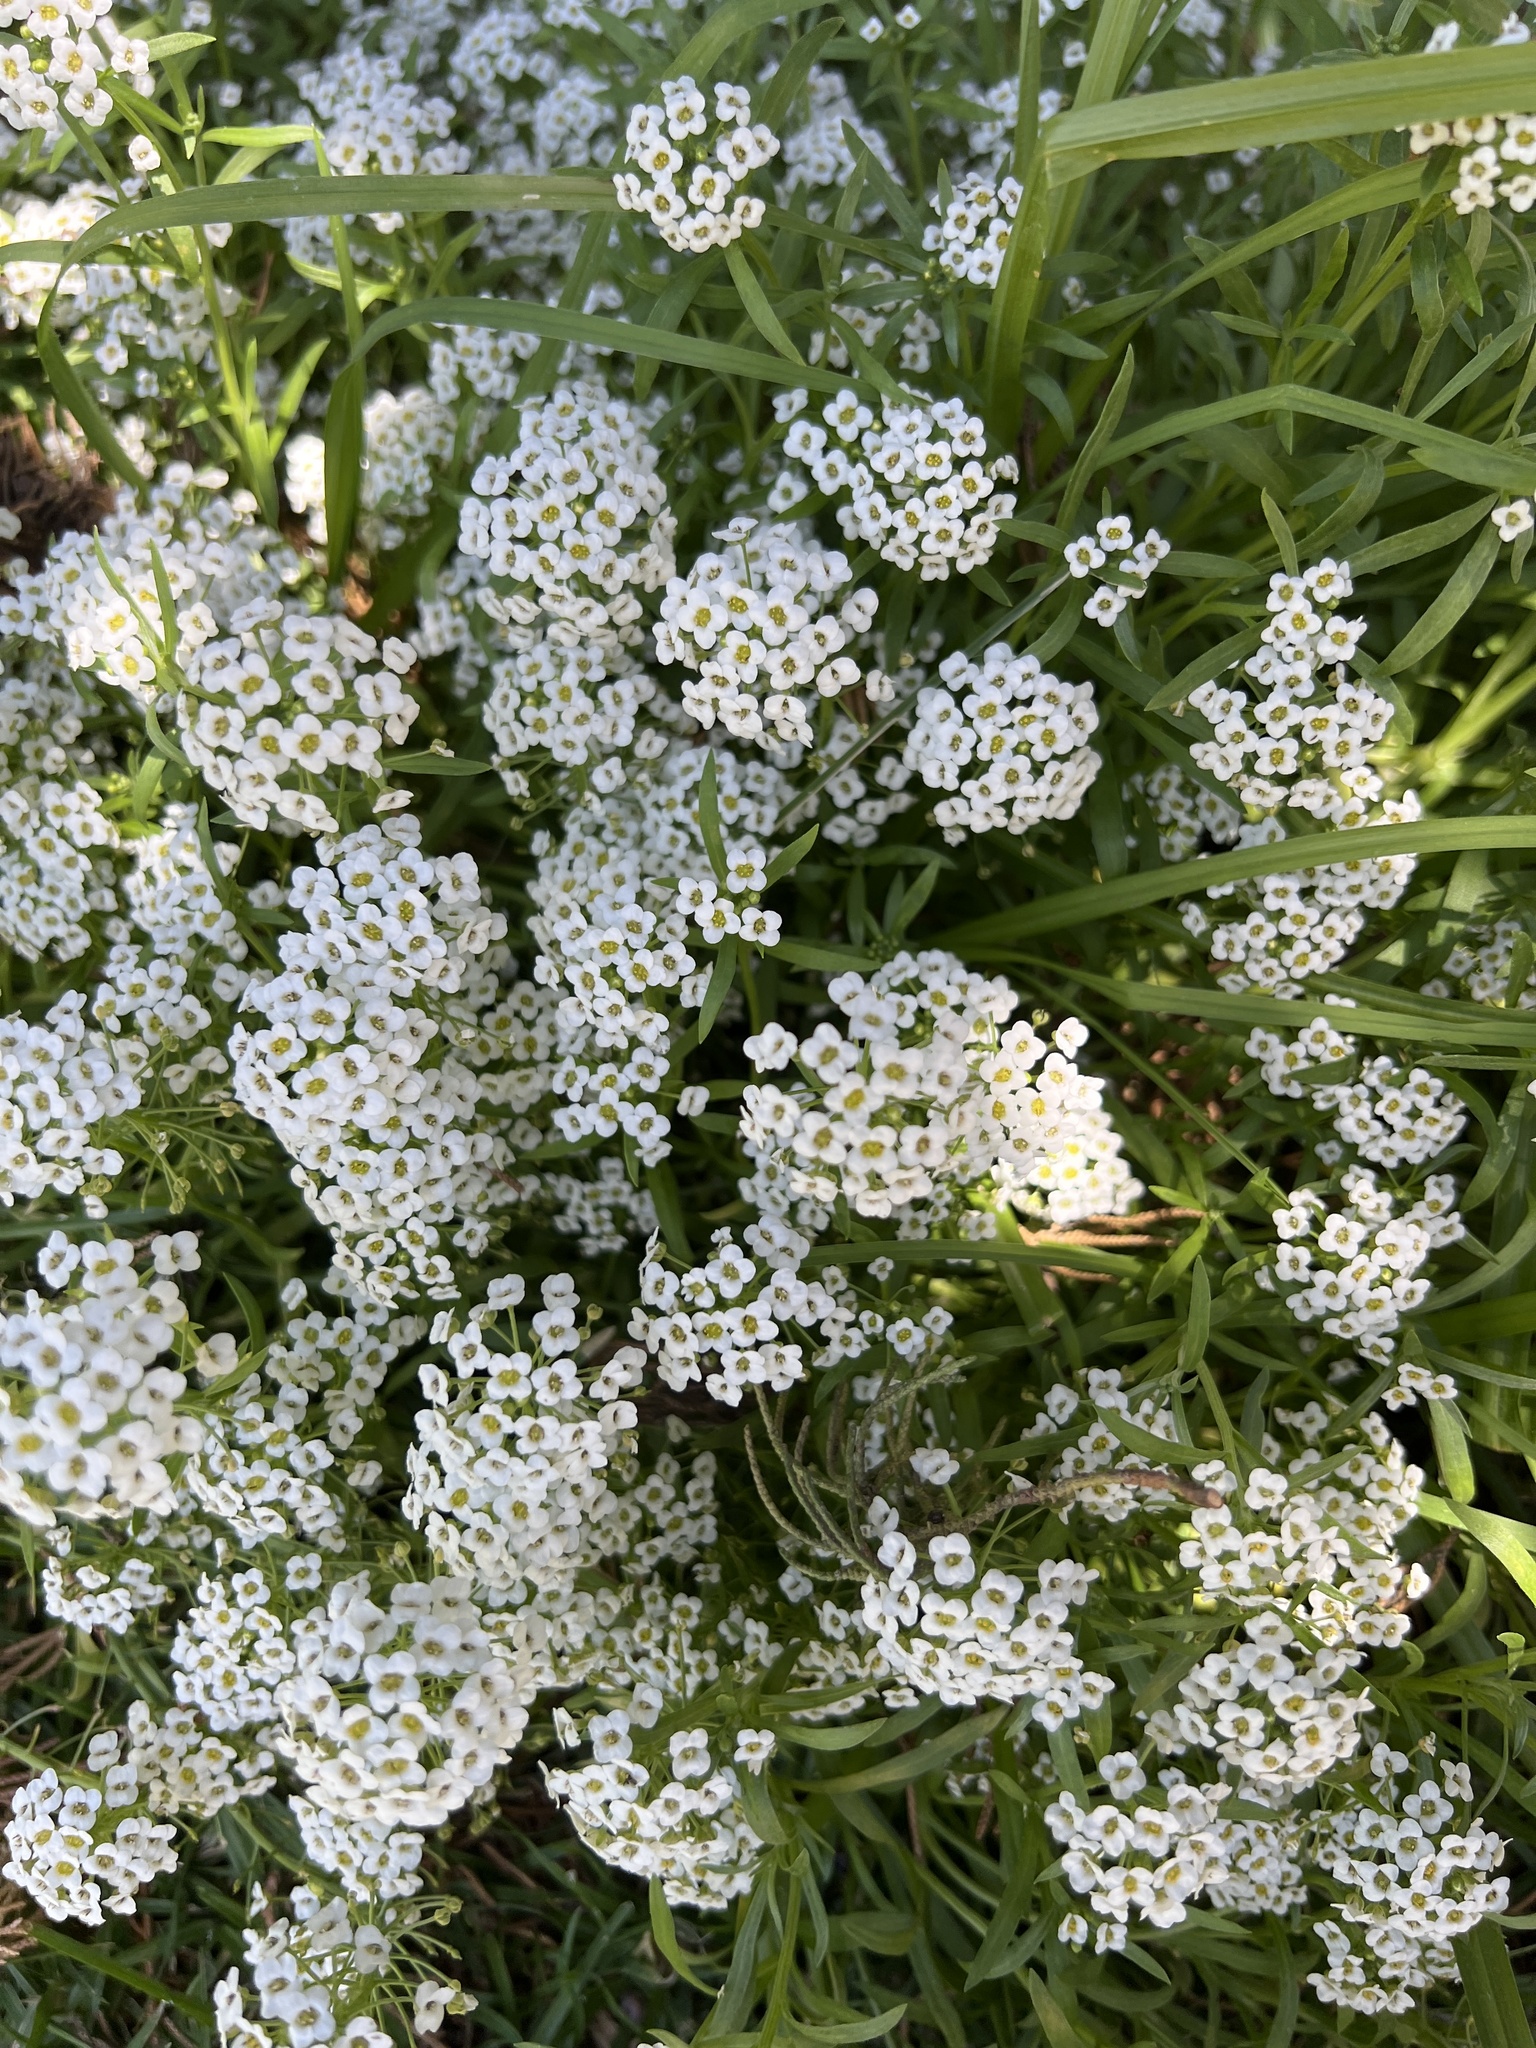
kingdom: Plantae
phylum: Tracheophyta
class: Magnoliopsida
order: Brassicales
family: Brassicaceae
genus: Lobularia
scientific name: Lobularia maritima
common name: Sweet alison
